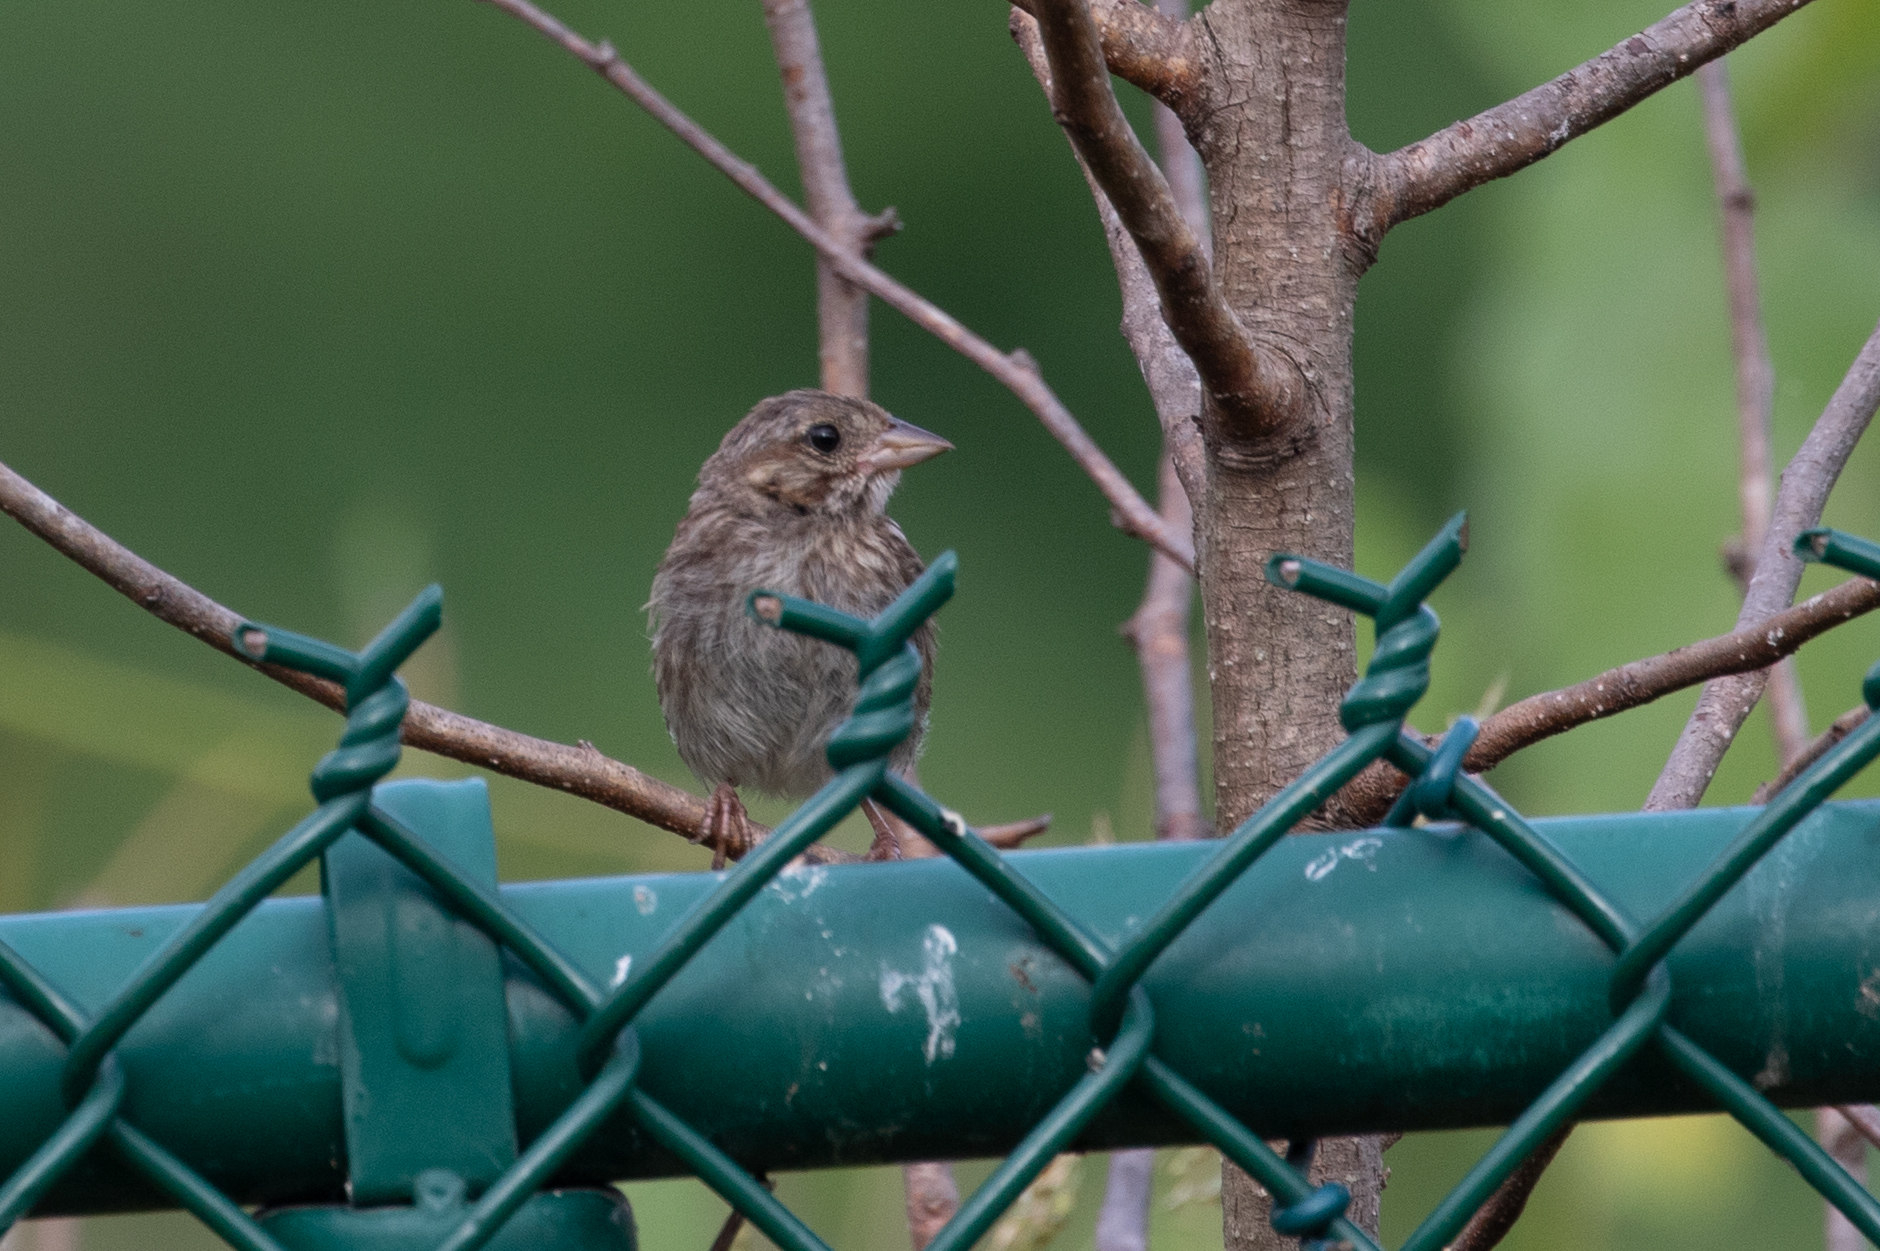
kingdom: Animalia
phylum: Chordata
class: Aves
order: Passeriformes
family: Passerellidae
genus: Melospiza
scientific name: Melospiza melodia
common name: Song sparrow
